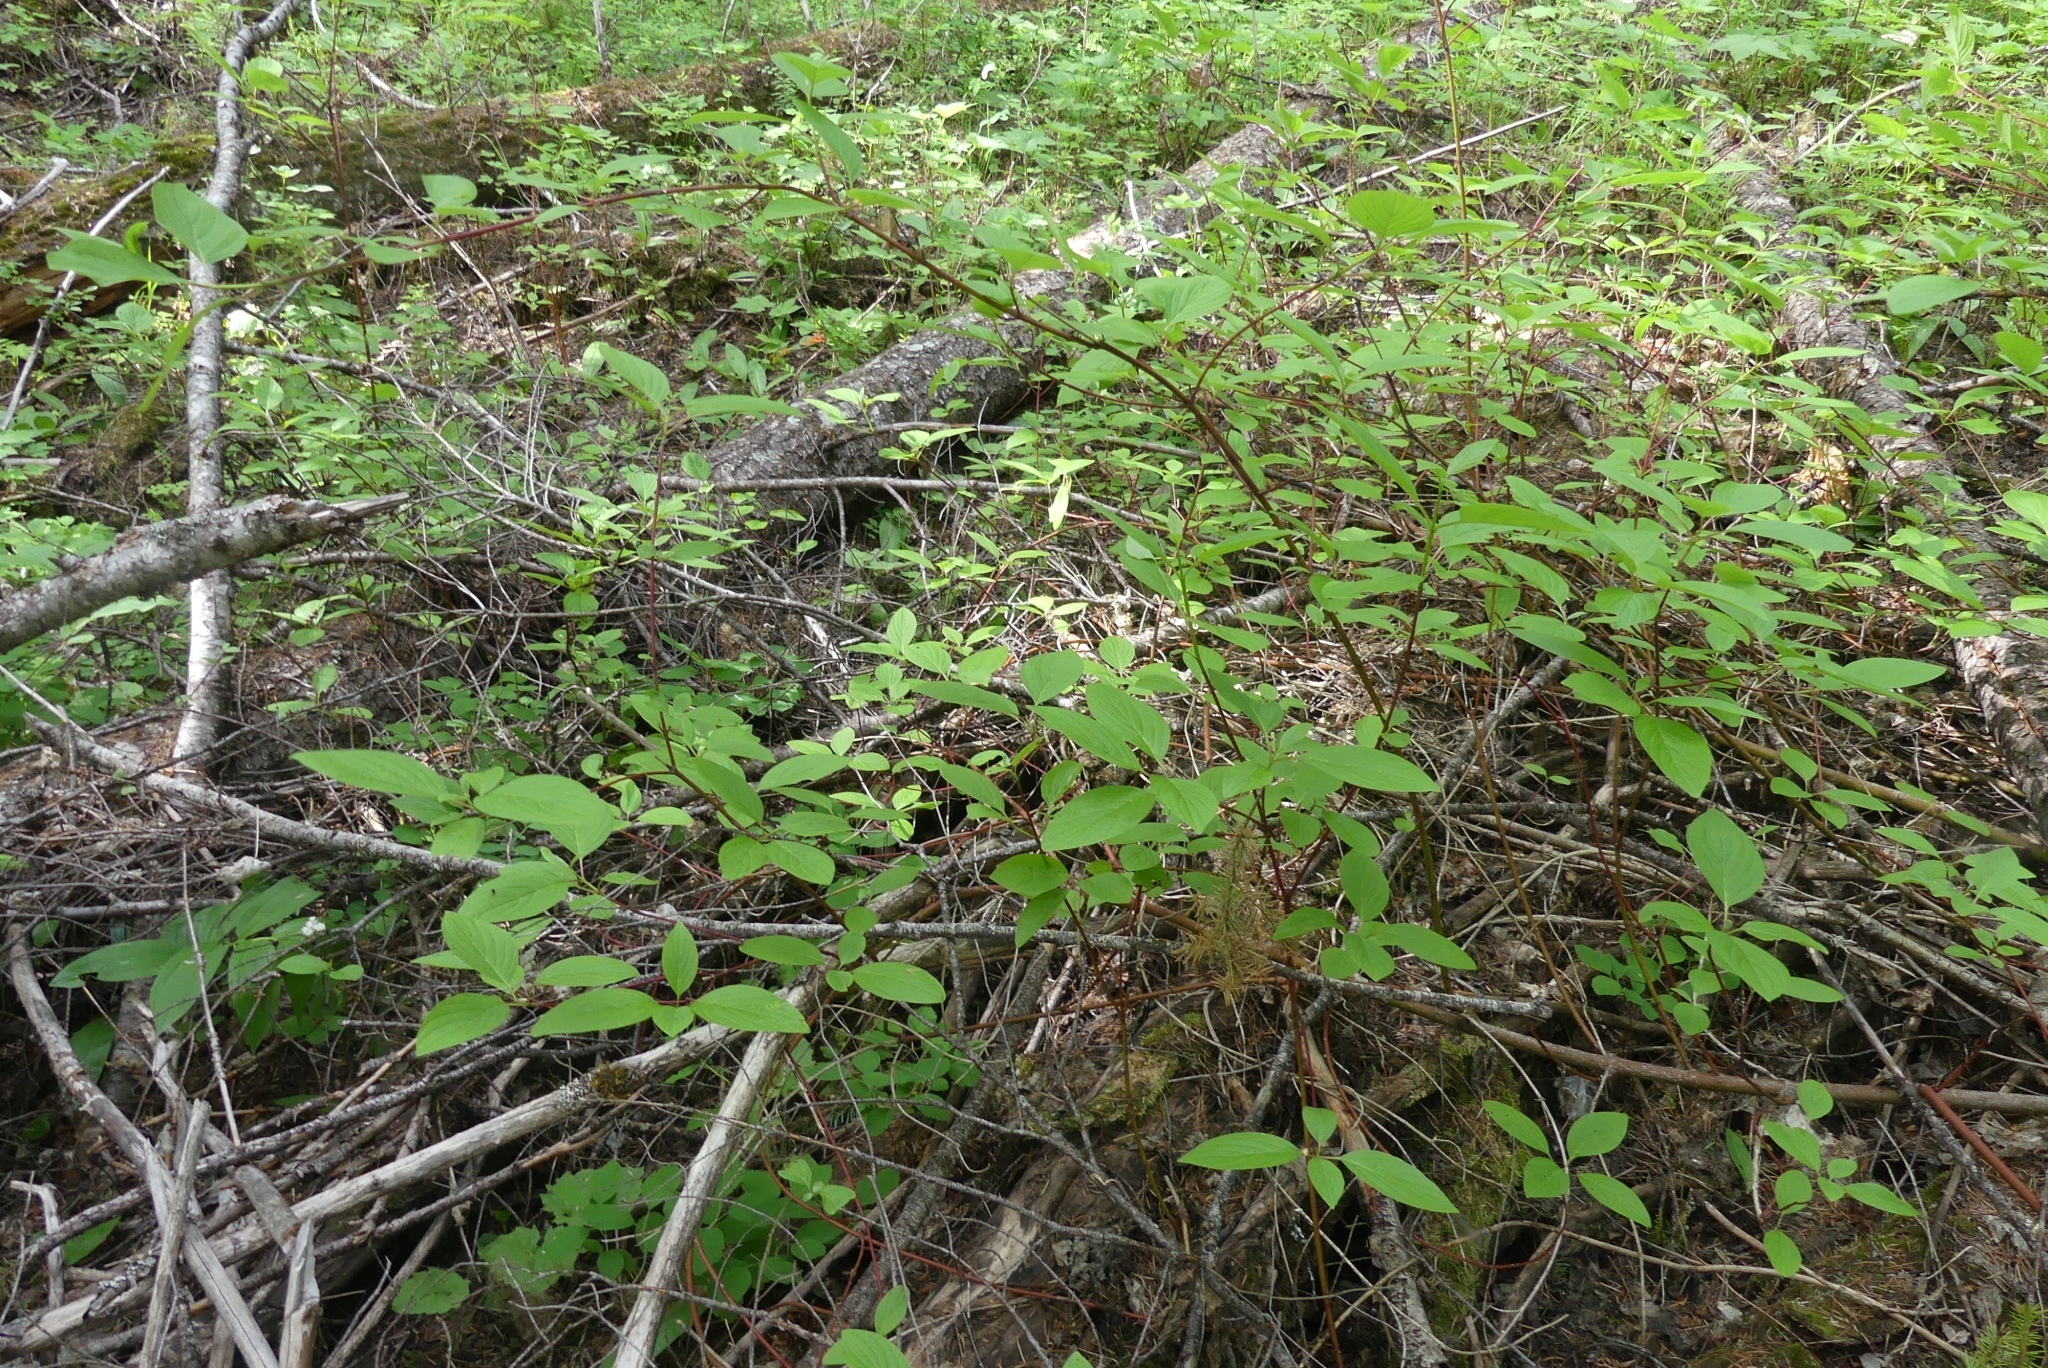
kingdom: Plantae
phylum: Tracheophyta
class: Magnoliopsida
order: Cornales
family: Cornaceae
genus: Cornus
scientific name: Cornus sericea
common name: Red-osier dogwood
